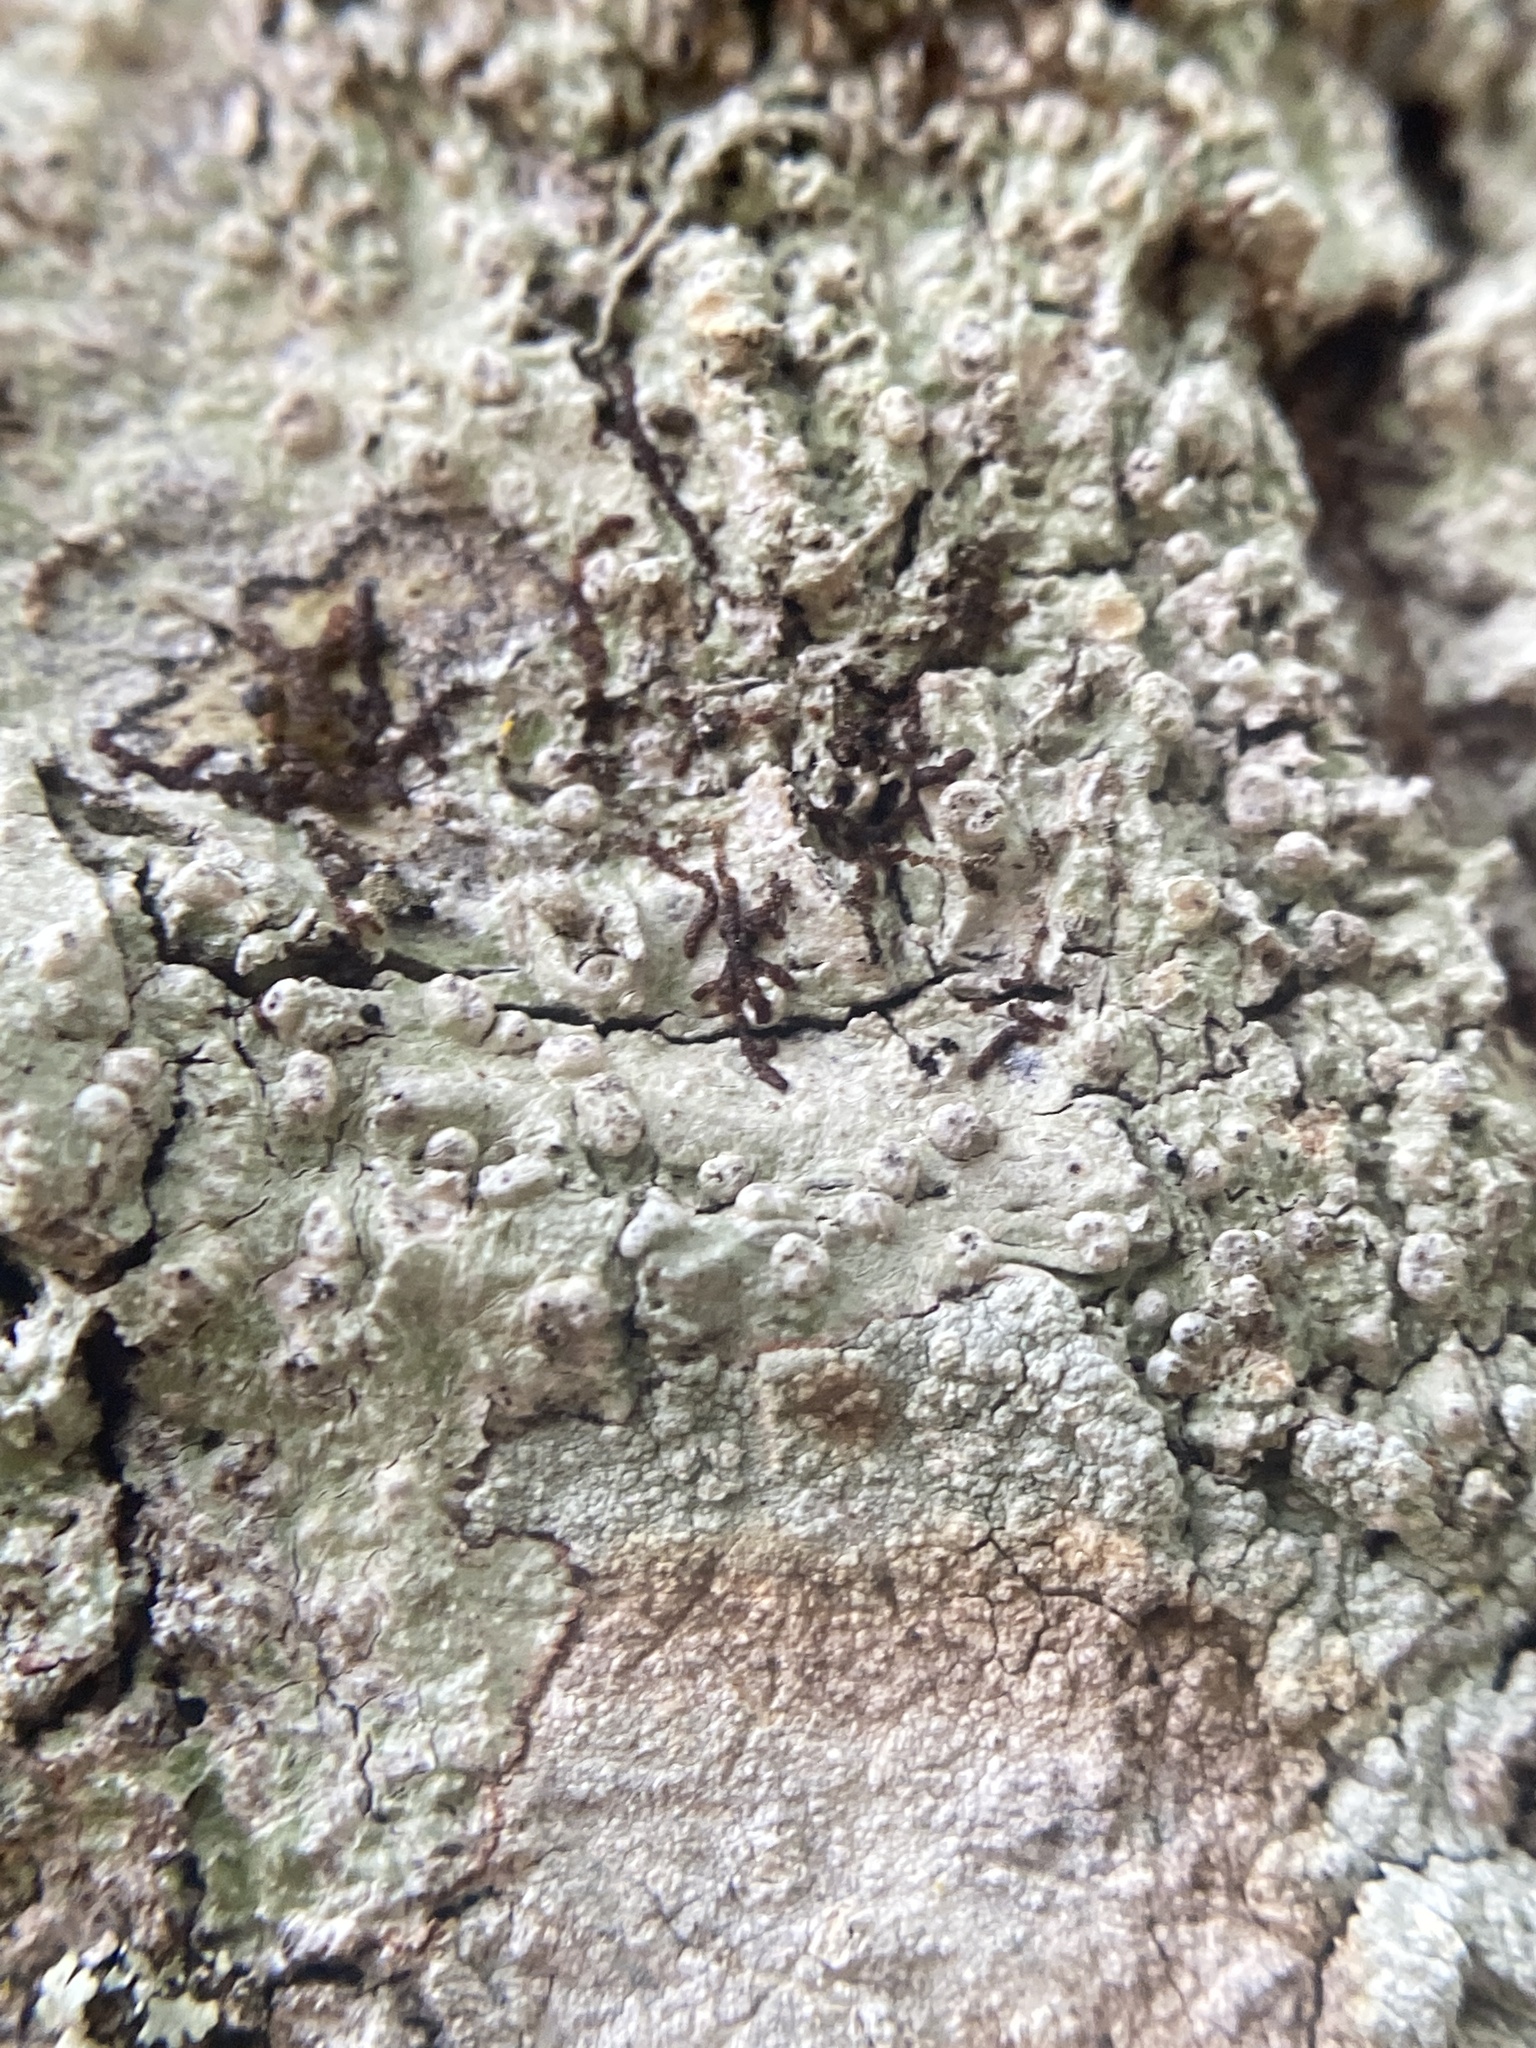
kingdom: Fungi
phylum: Ascomycota
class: Lecanoromycetes
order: Pertusariales
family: Pertusariaceae
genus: Pertusaria
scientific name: Pertusaria sinusmexicani
